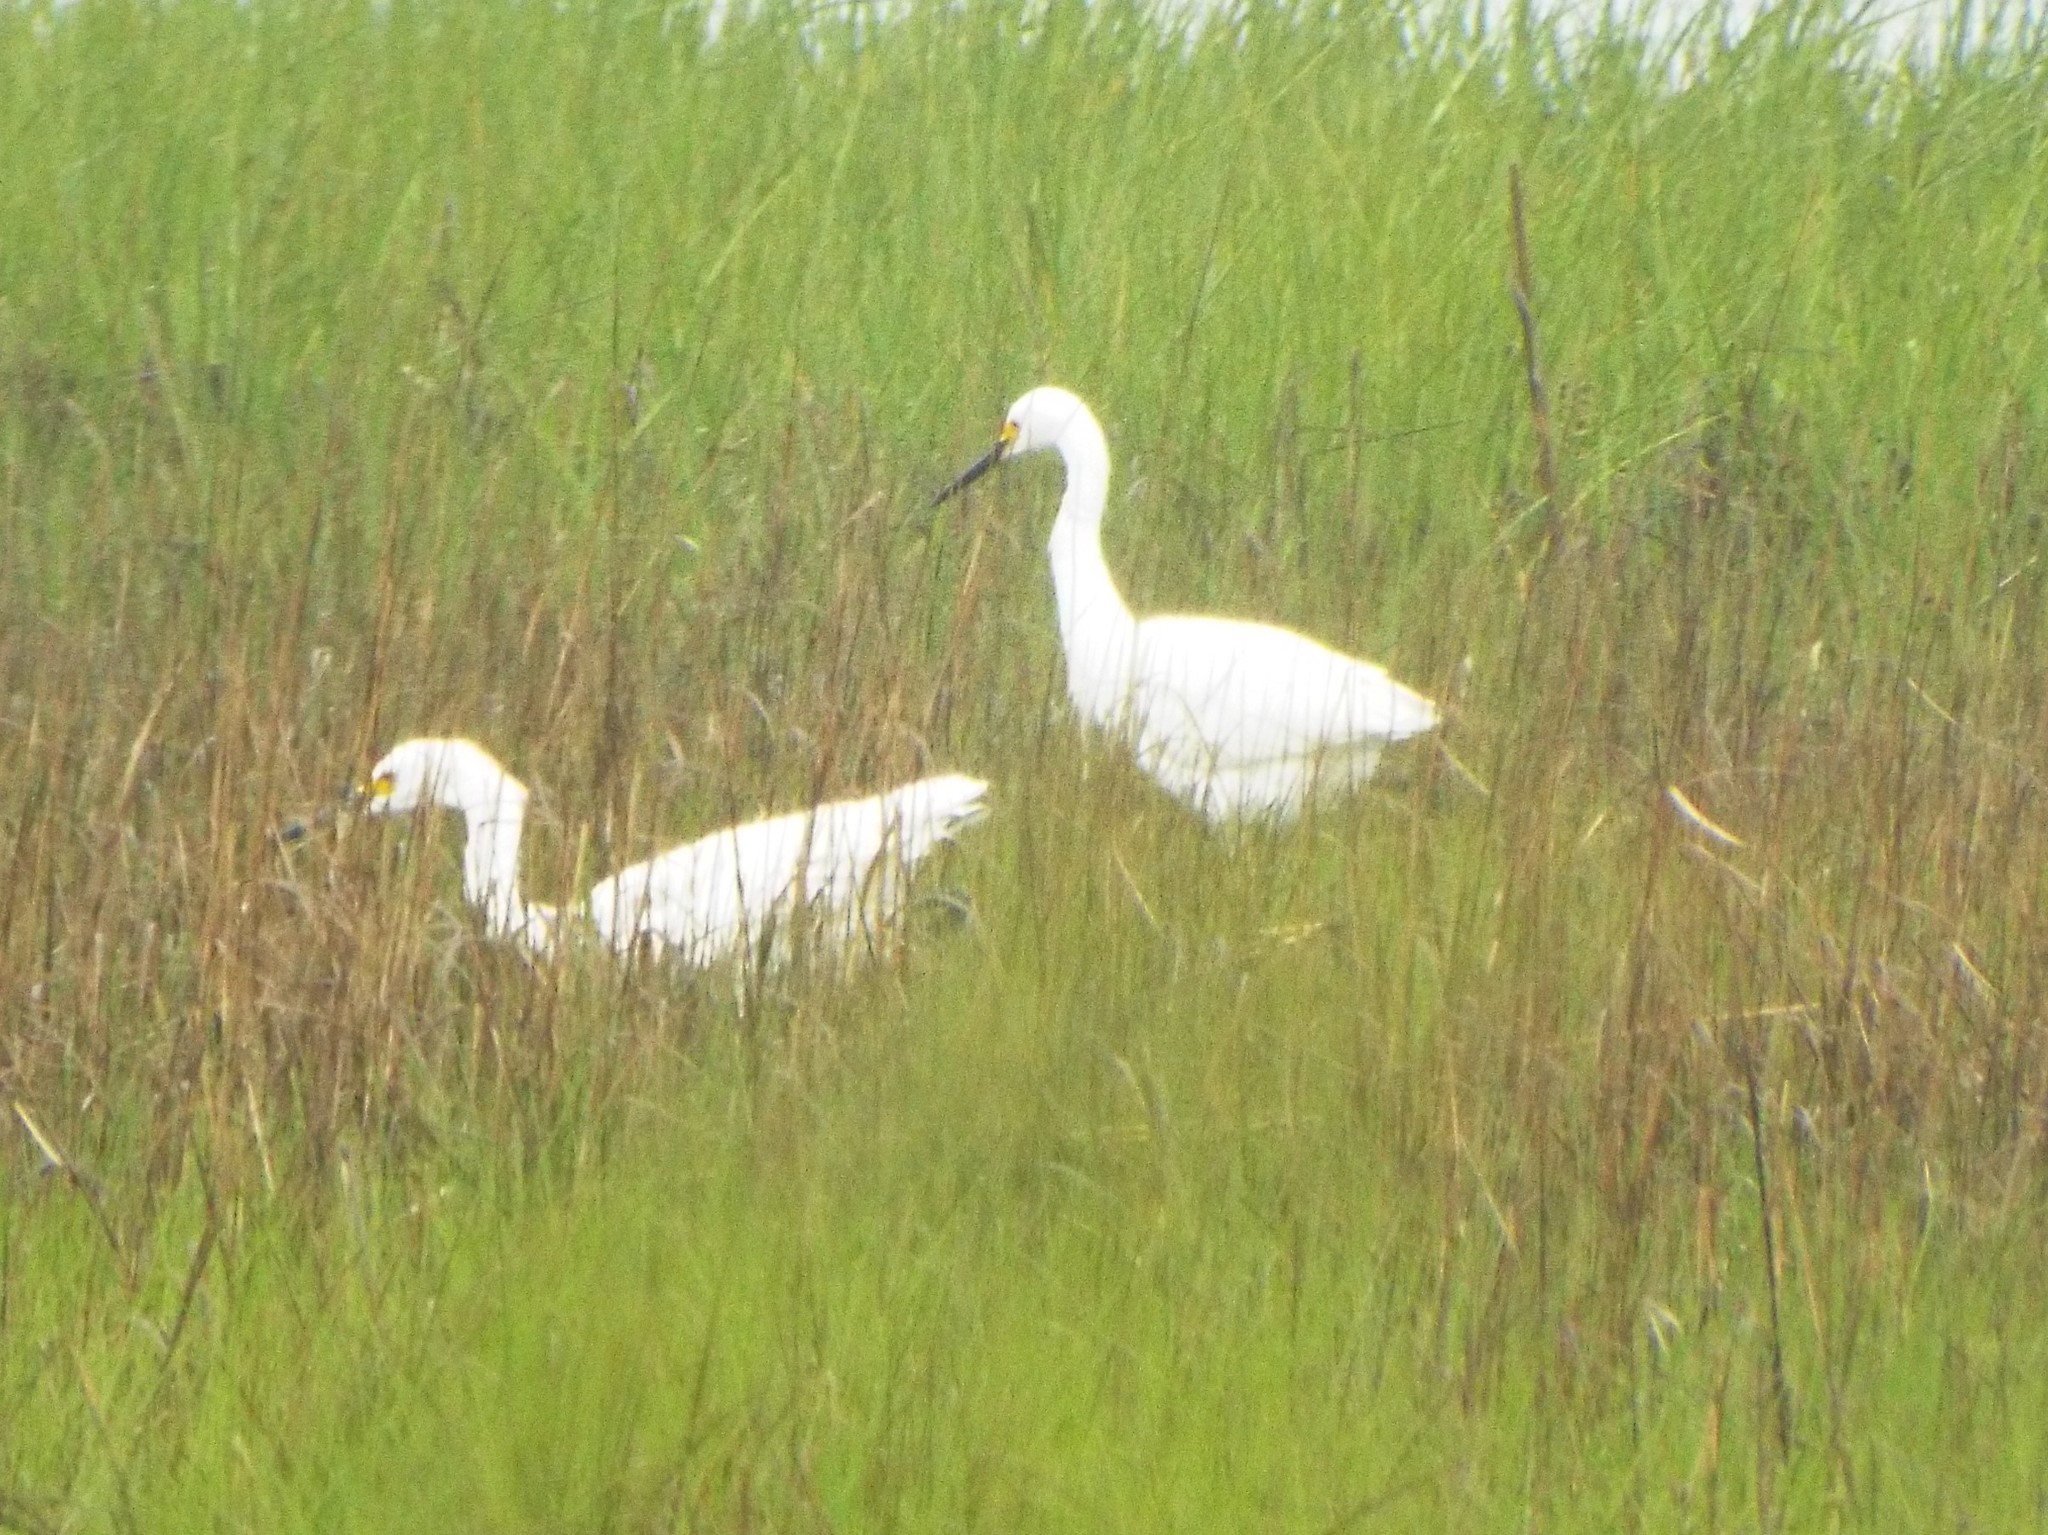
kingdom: Animalia
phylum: Chordata
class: Aves
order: Pelecaniformes
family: Ardeidae
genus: Egretta
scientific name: Egretta thula
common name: Snowy egret
